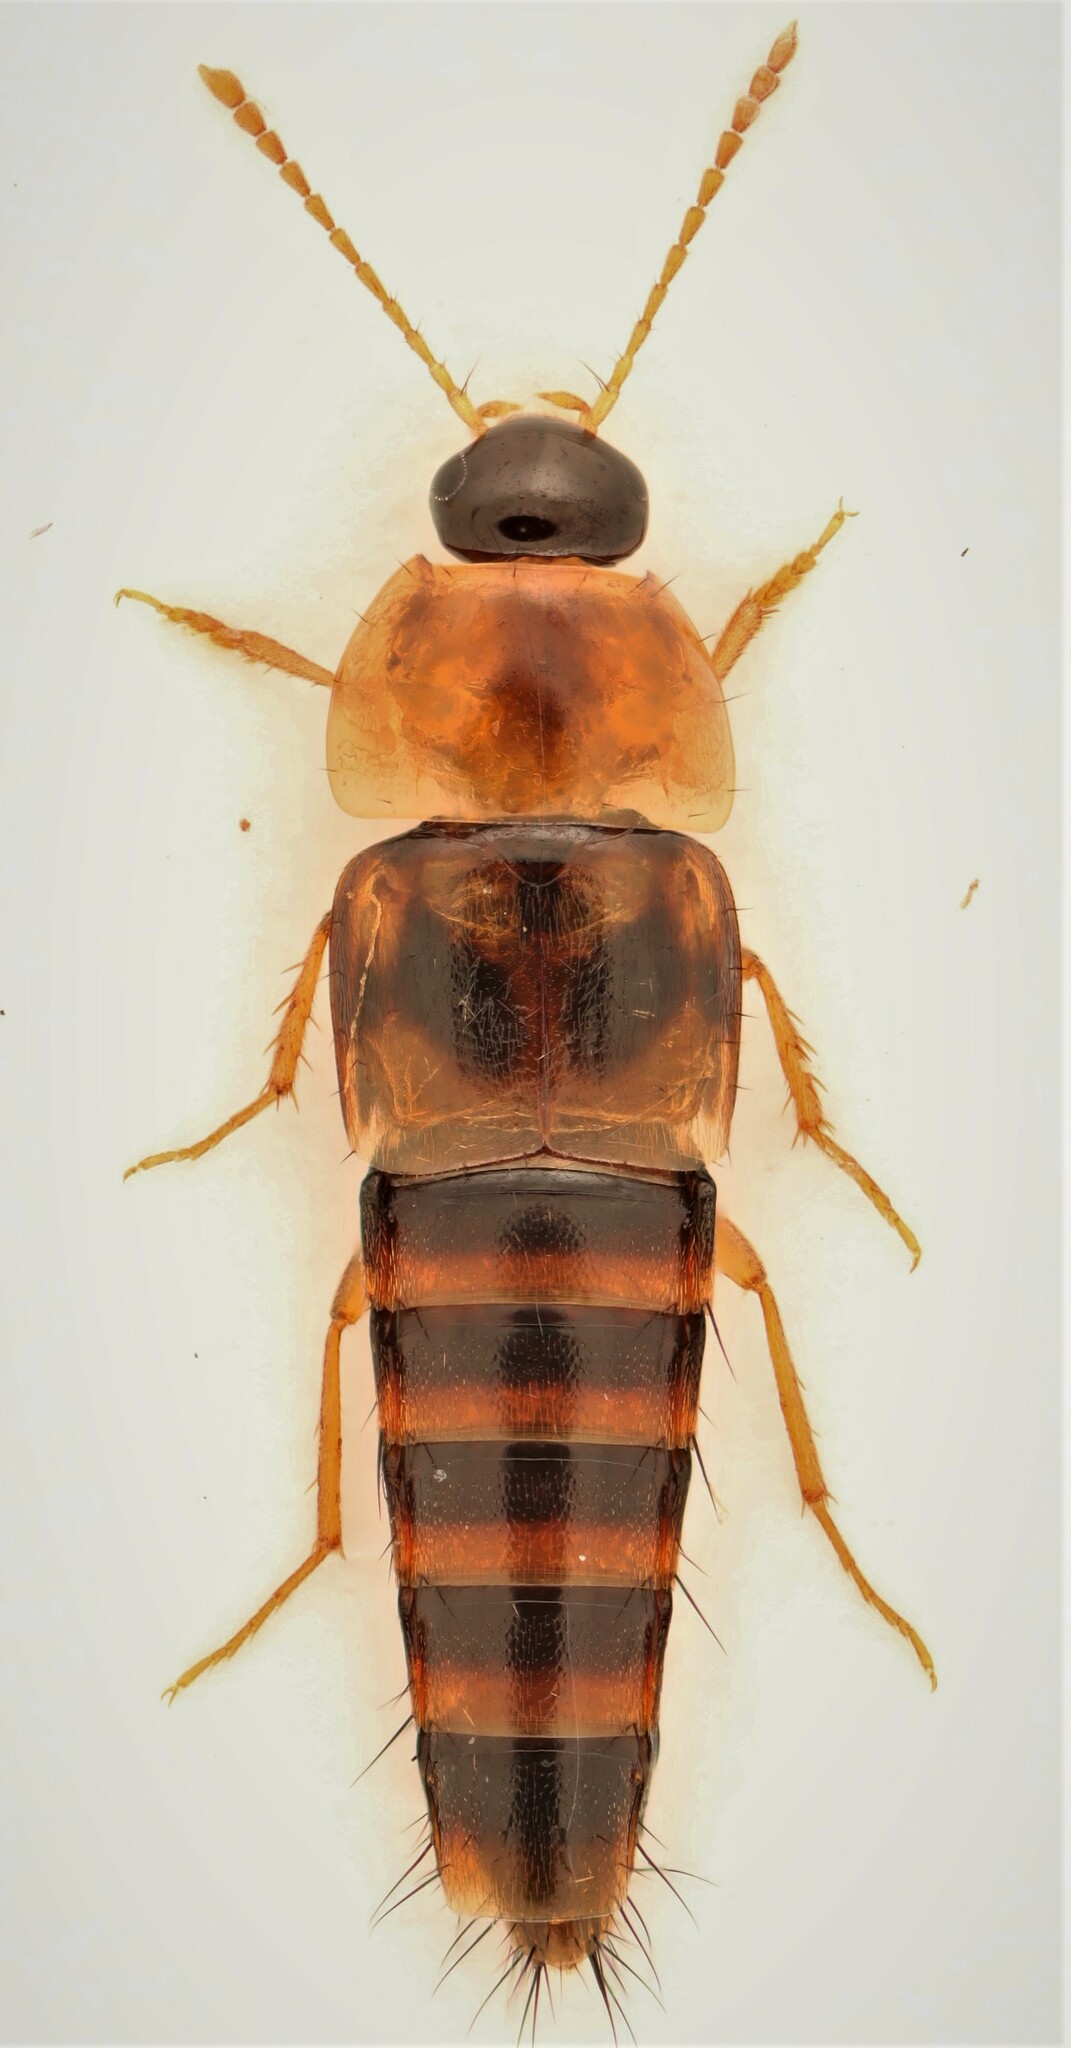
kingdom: Animalia
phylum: Arthropoda
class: Insecta
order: Coleoptera
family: Staphylinidae
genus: Tachyporus
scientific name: Tachyporus lecontei
